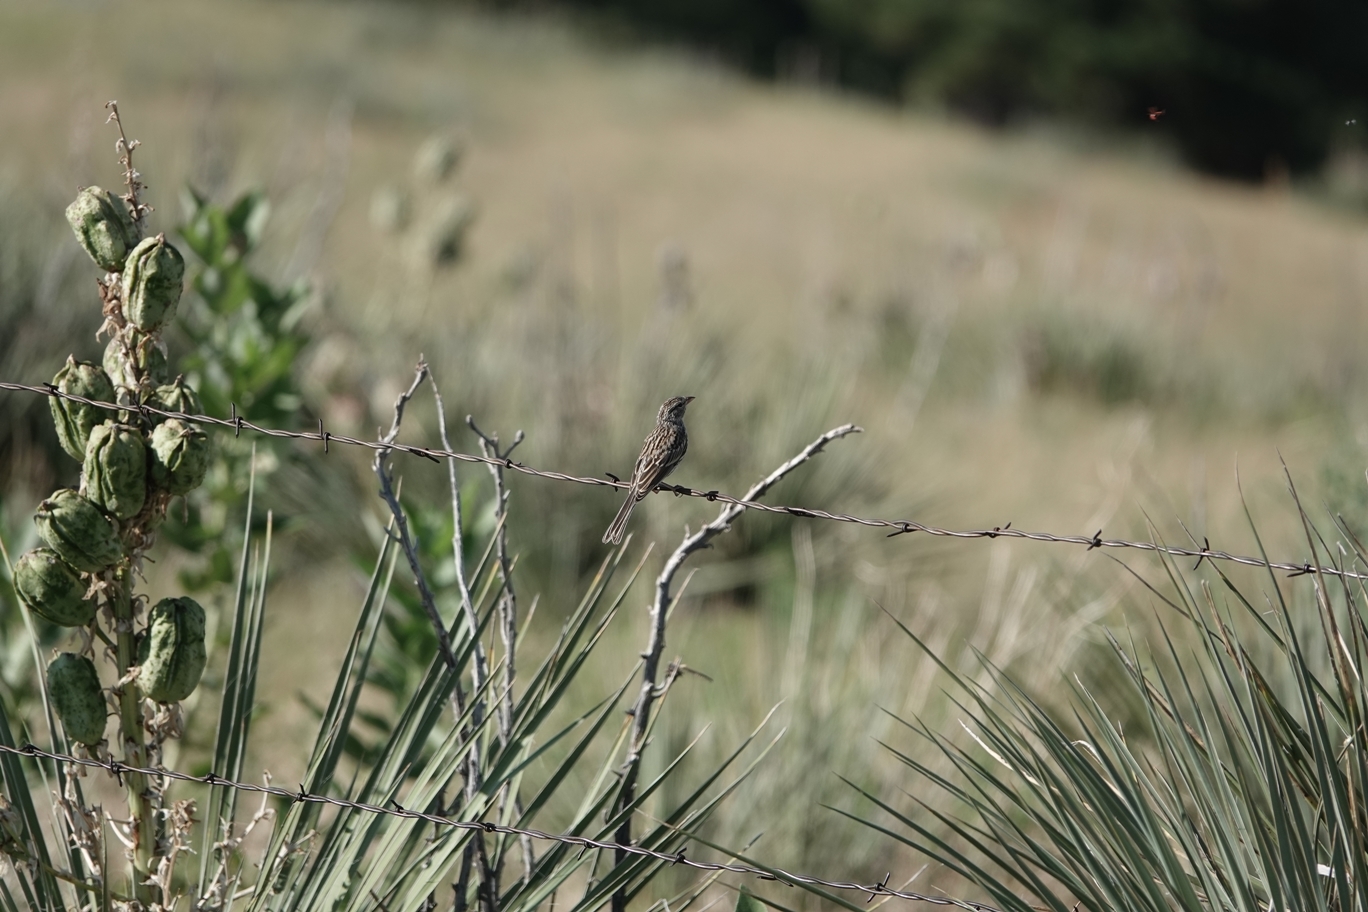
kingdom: Animalia
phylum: Chordata
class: Aves
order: Passeriformes
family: Passerellidae
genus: Spizella
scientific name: Spizella passerina
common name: Chipping sparrow
